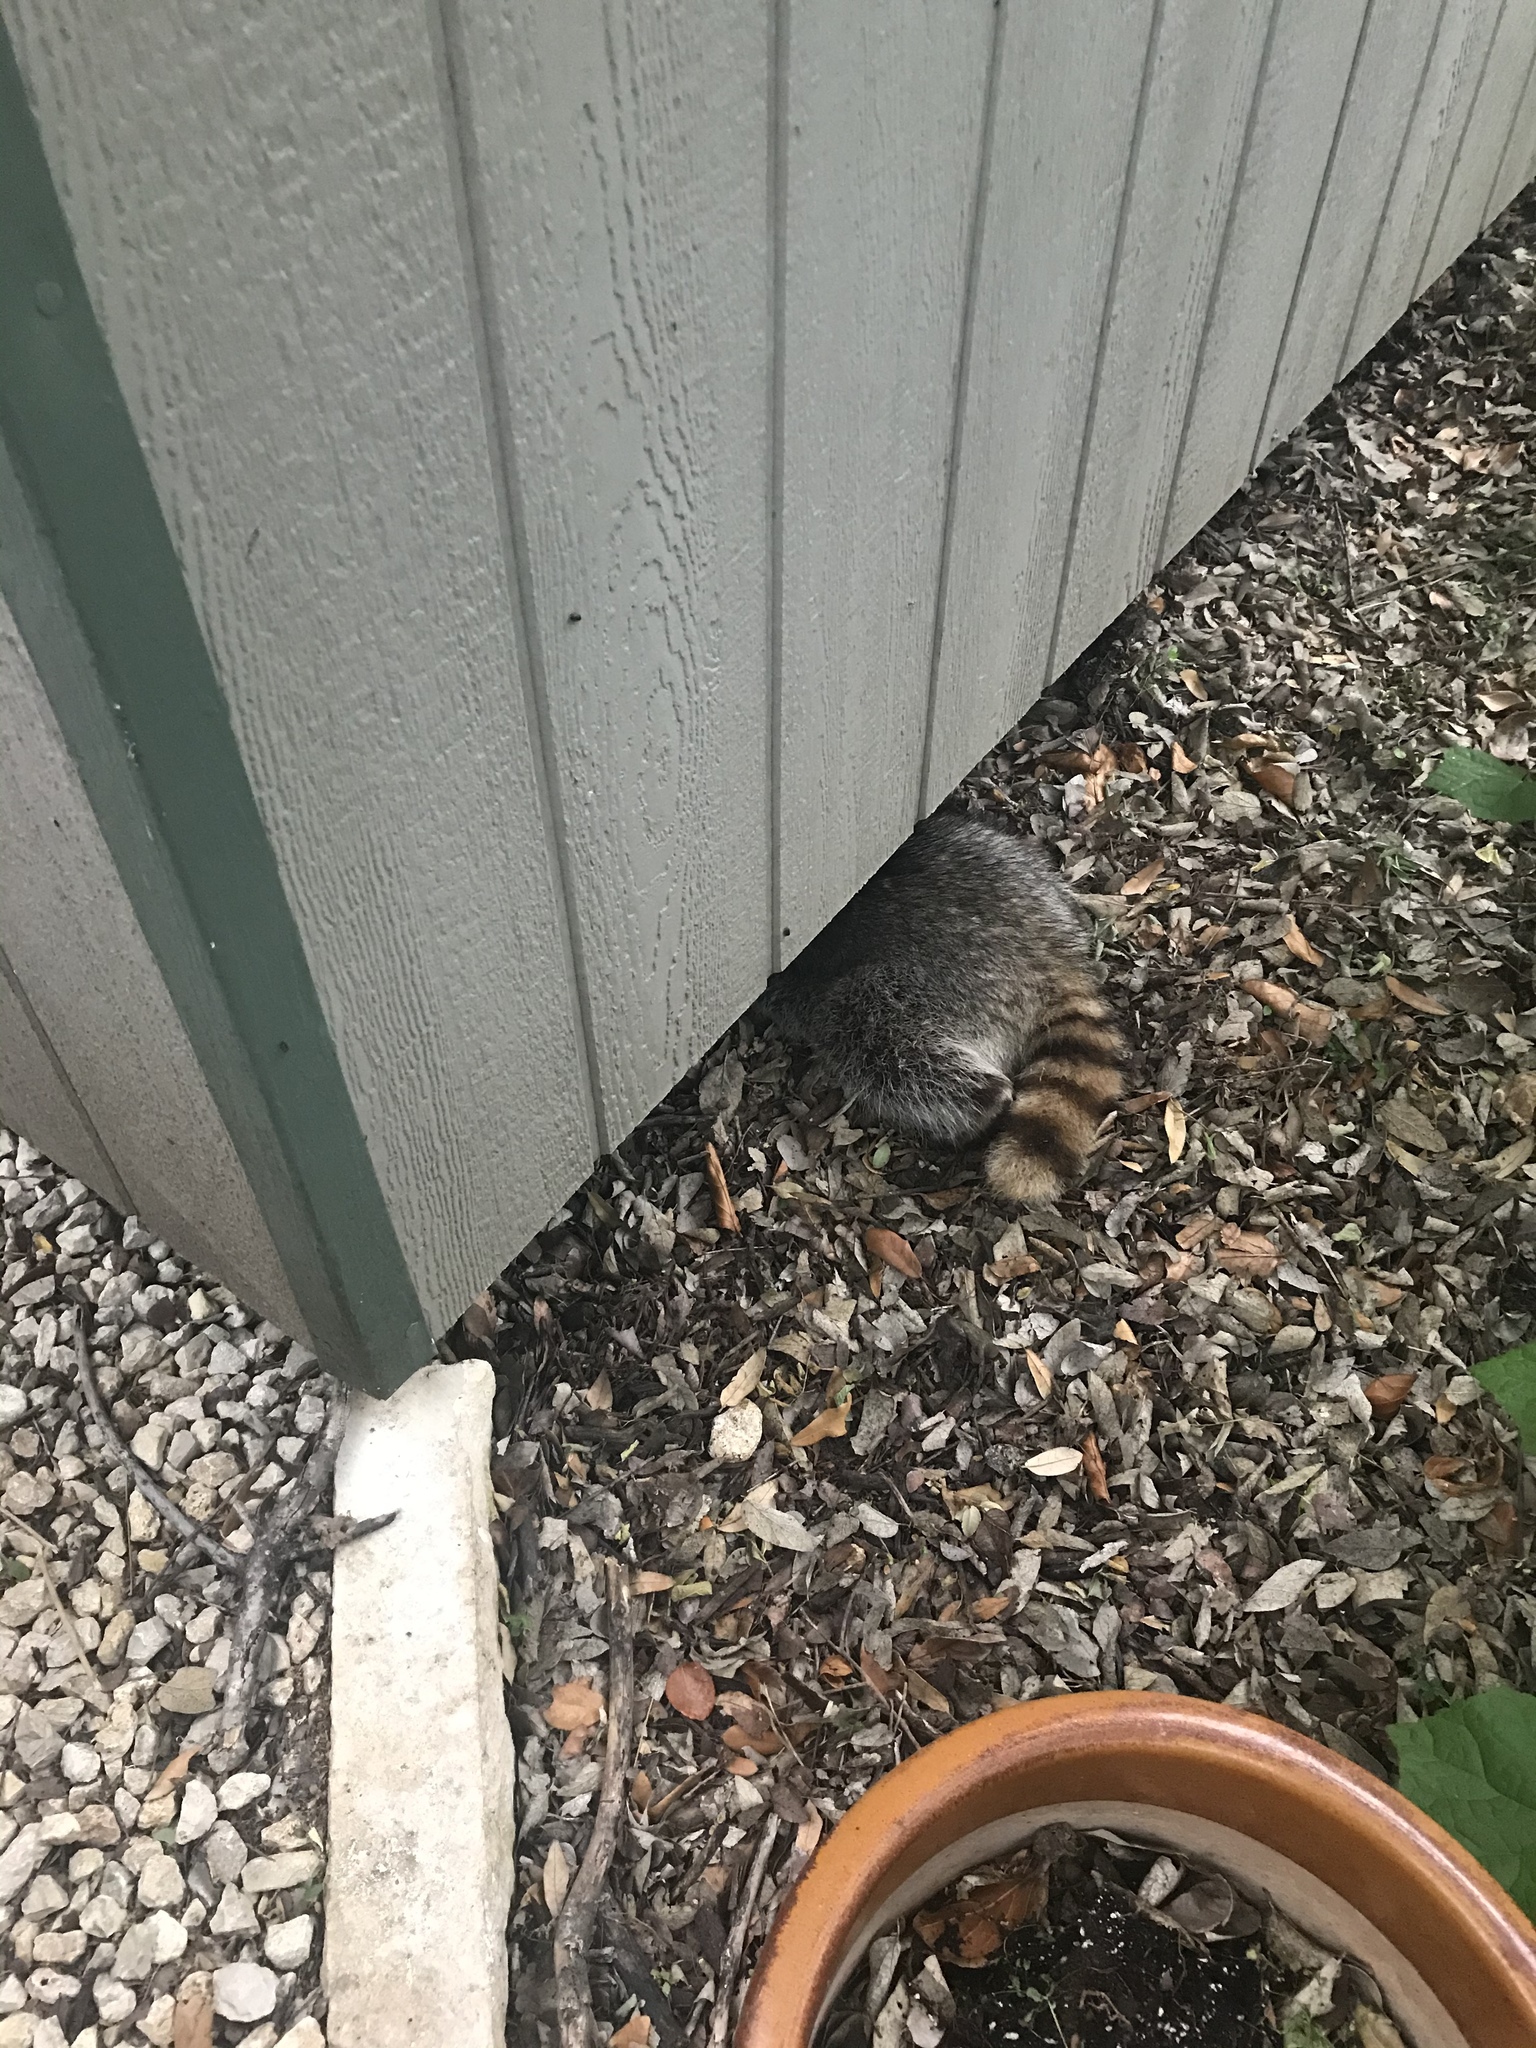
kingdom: Animalia
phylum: Chordata
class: Mammalia
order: Carnivora
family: Procyonidae
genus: Procyon
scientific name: Procyon lotor
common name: Raccoon
